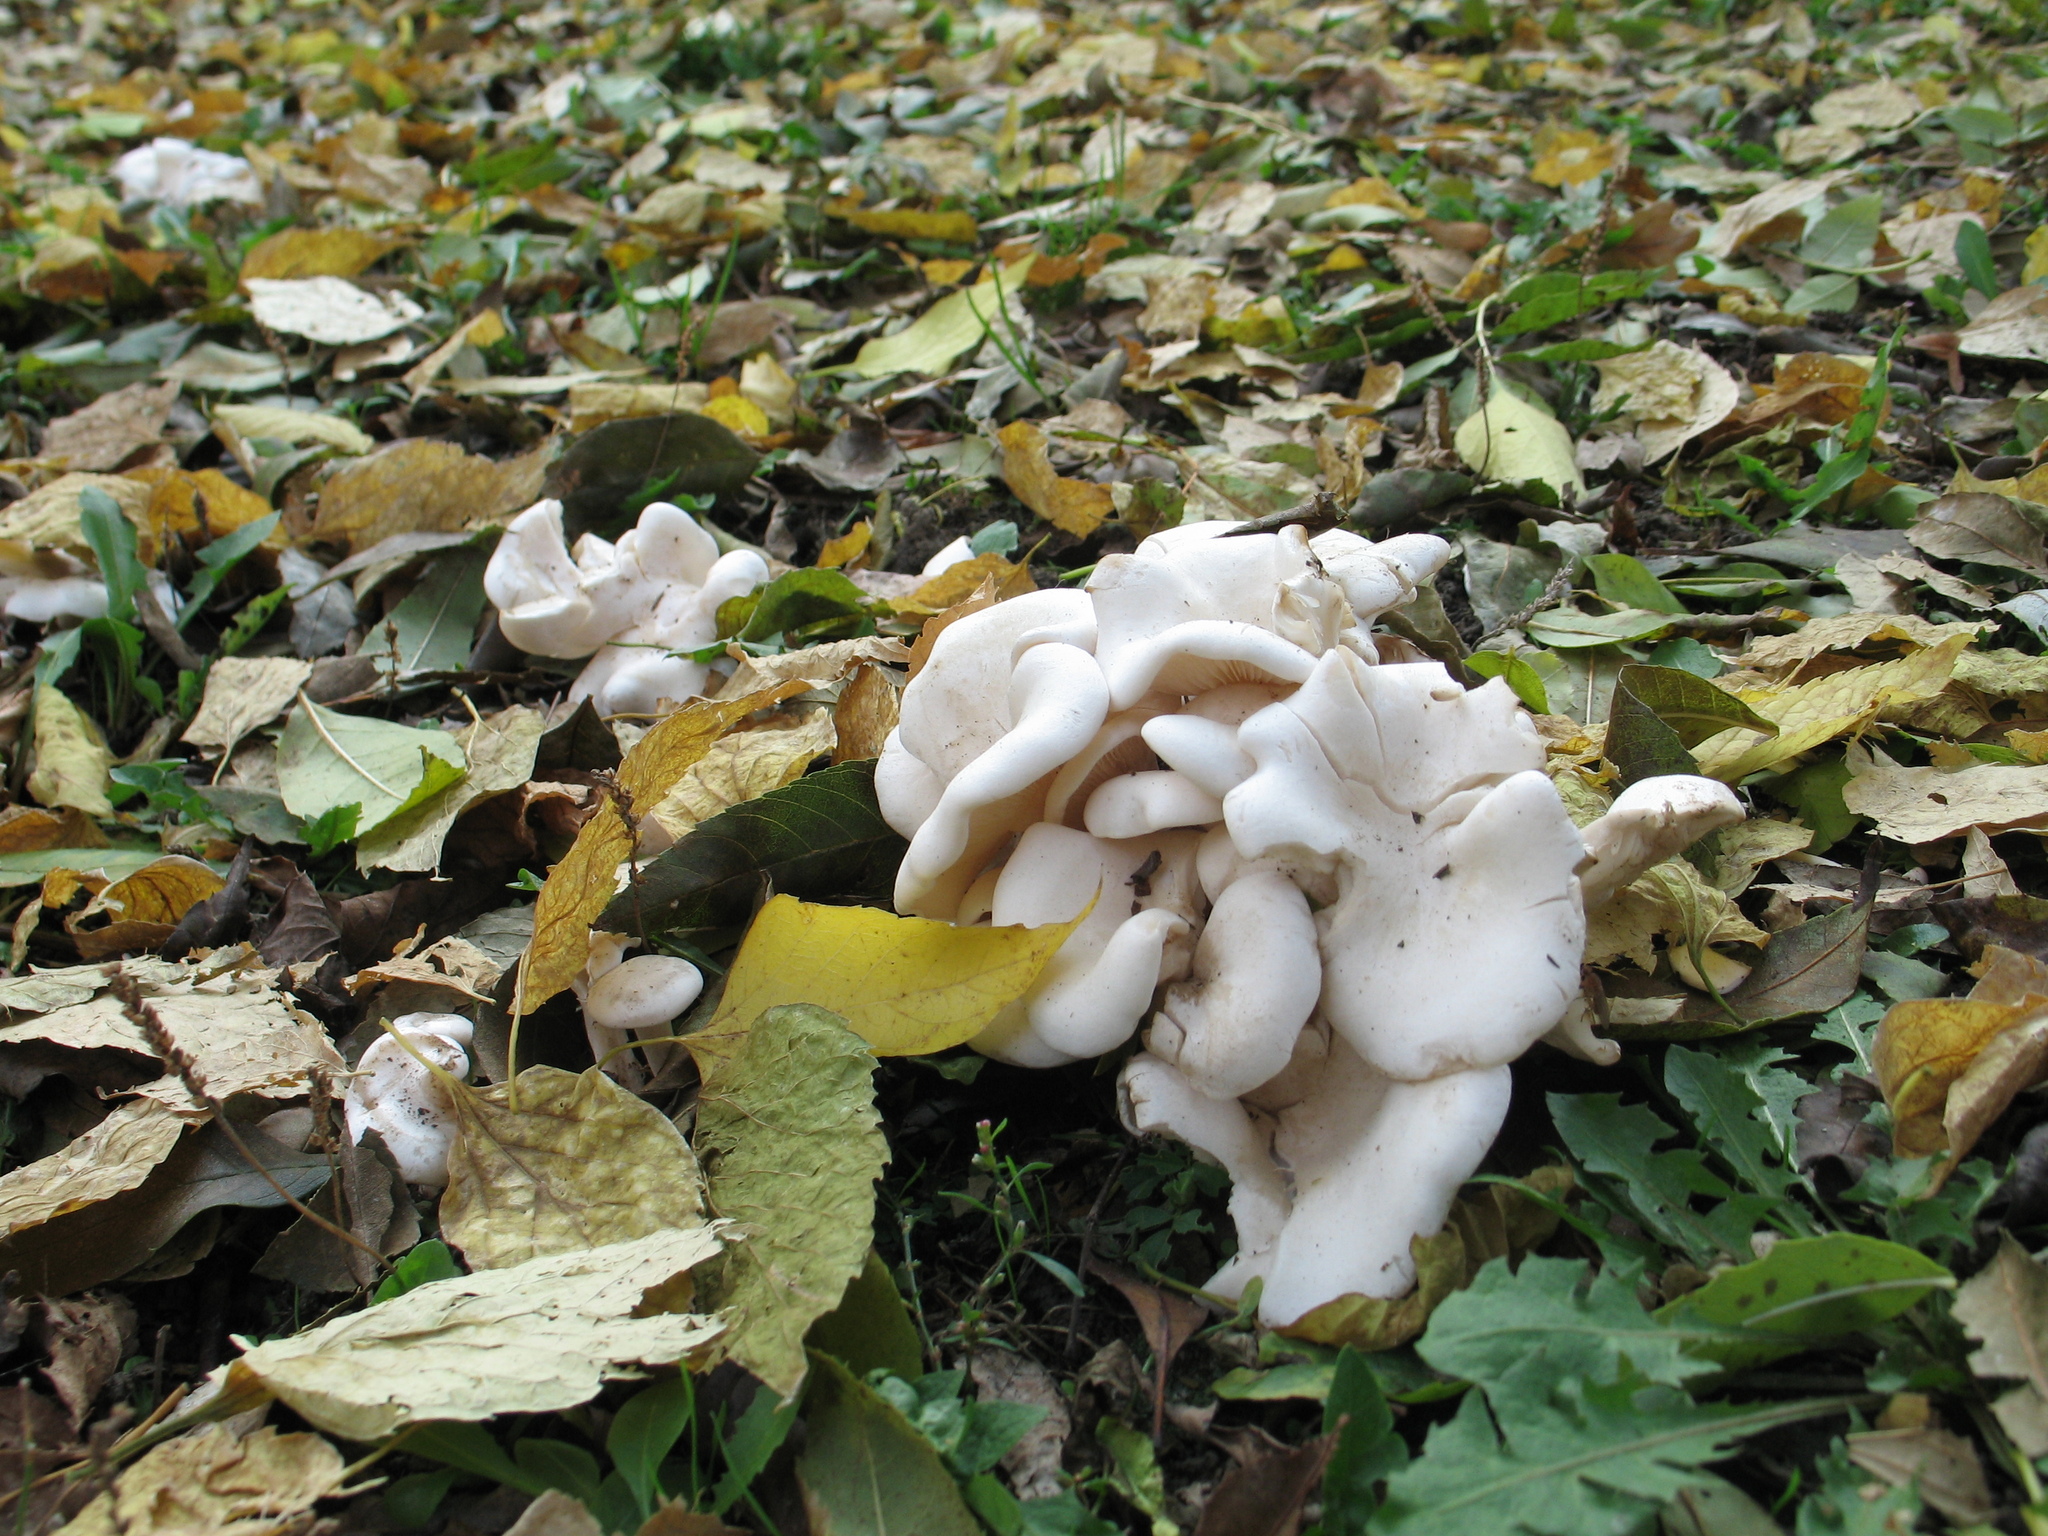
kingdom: Fungi
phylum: Basidiomycota
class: Agaricomycetes
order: Agaricales
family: Tricholomataceae
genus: Leucocybe
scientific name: Leucocybe connata
